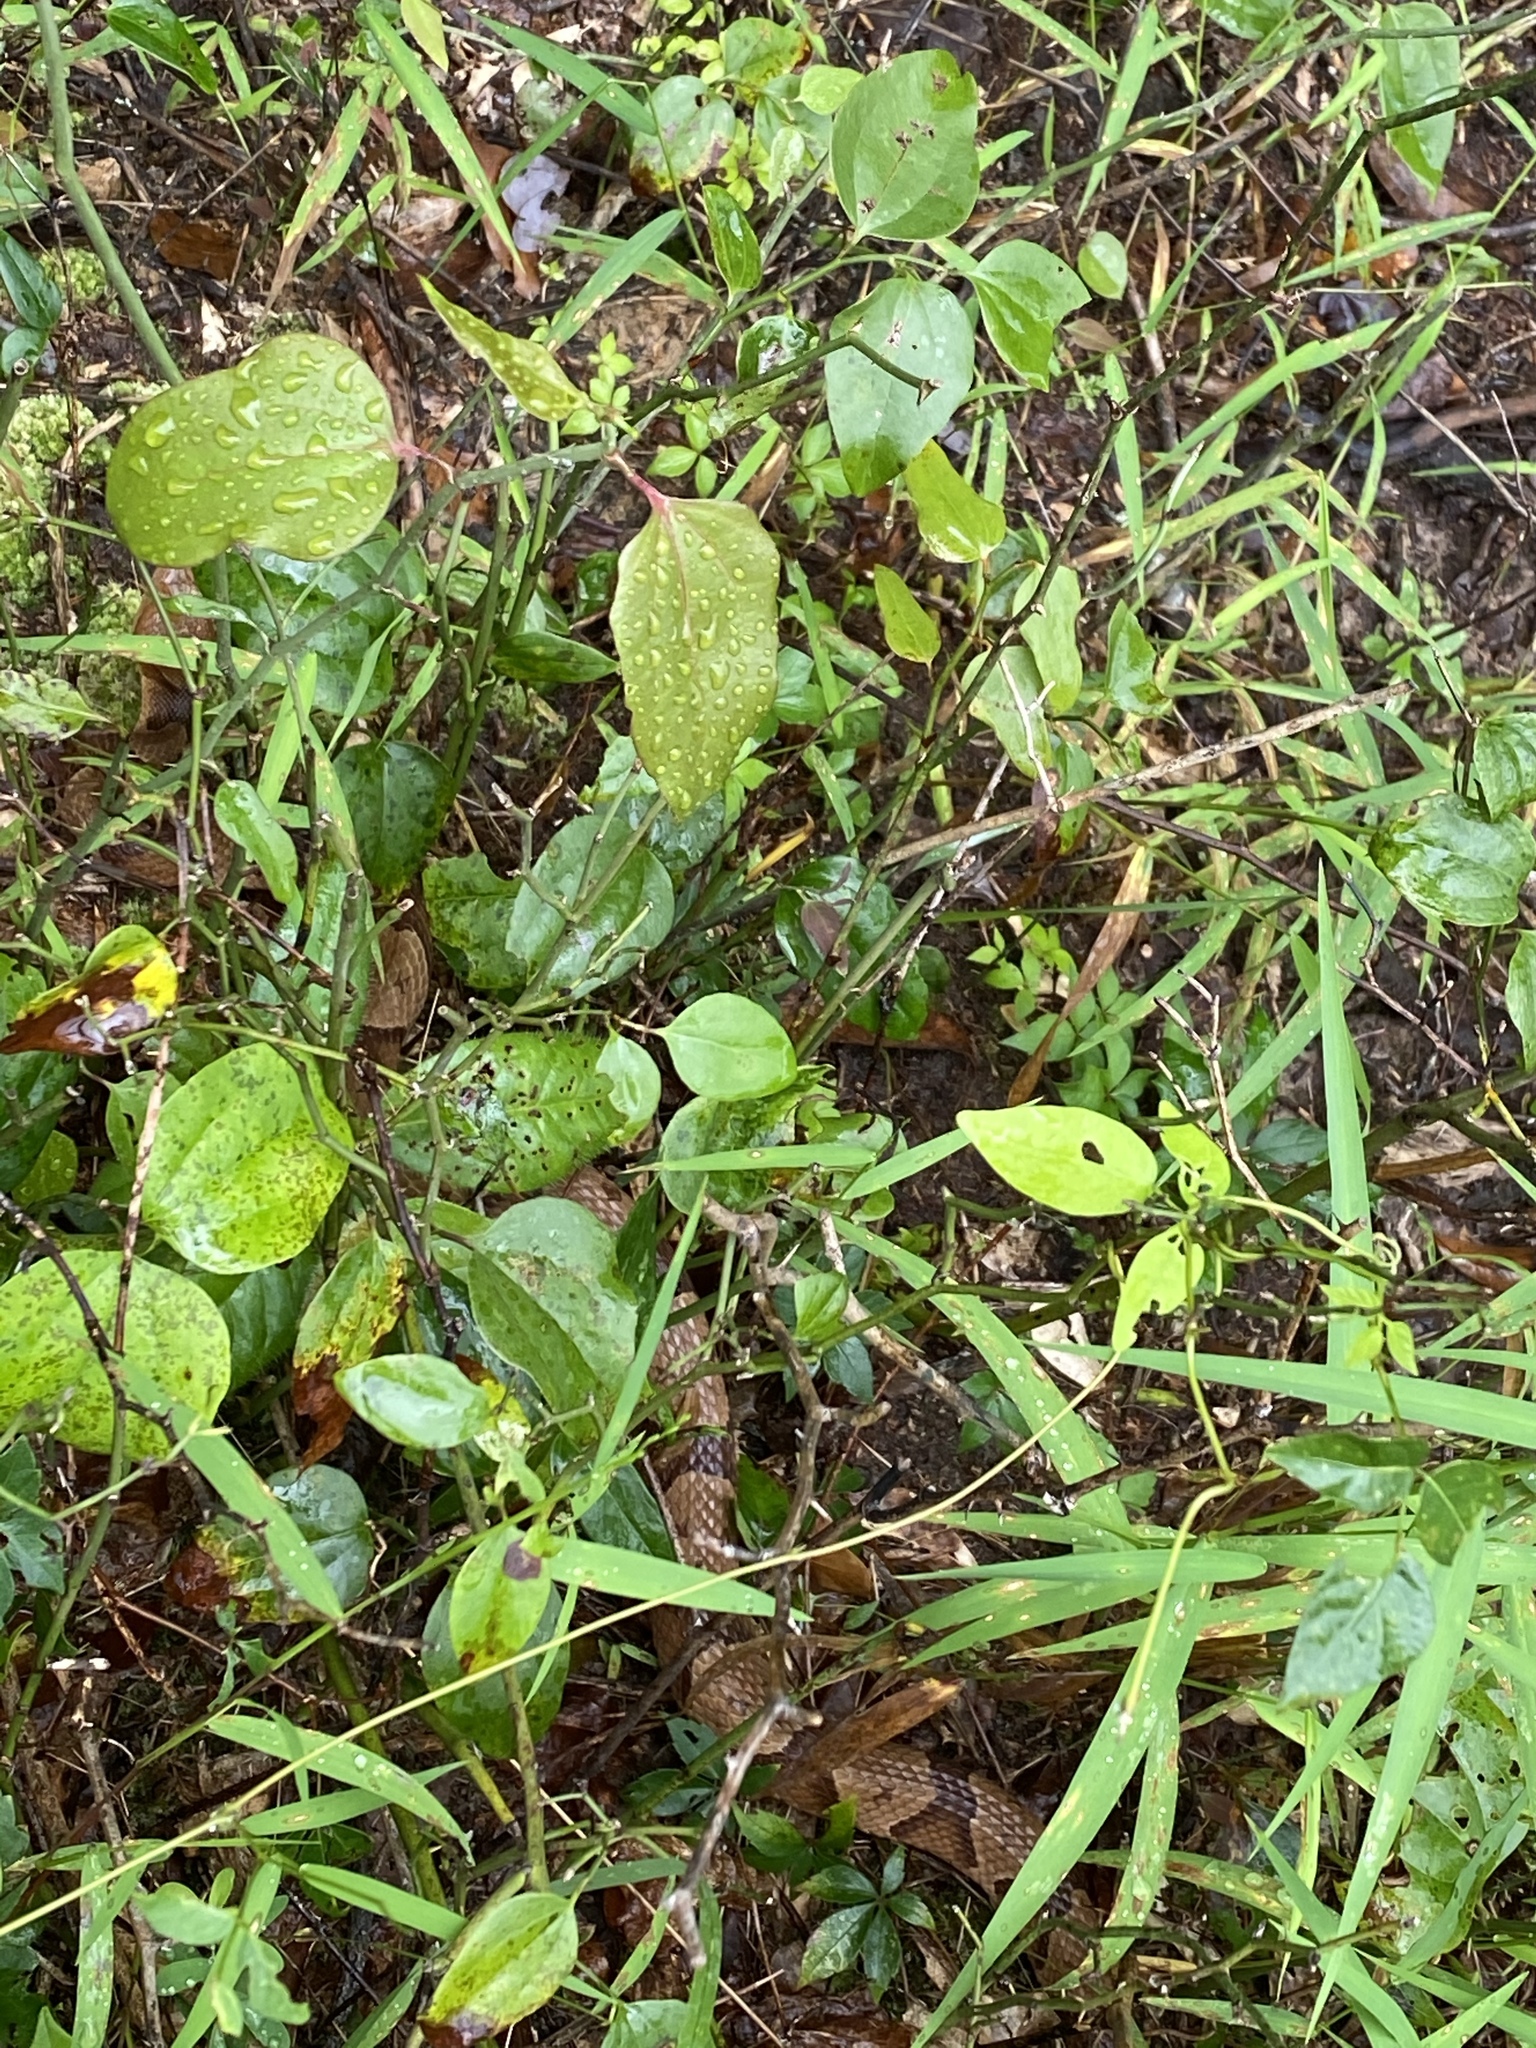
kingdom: Animalia
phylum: Chordata
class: Squamata
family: Viperidae
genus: Agkistrodon
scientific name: Agkistrodon contortrix
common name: Northern copperhead
